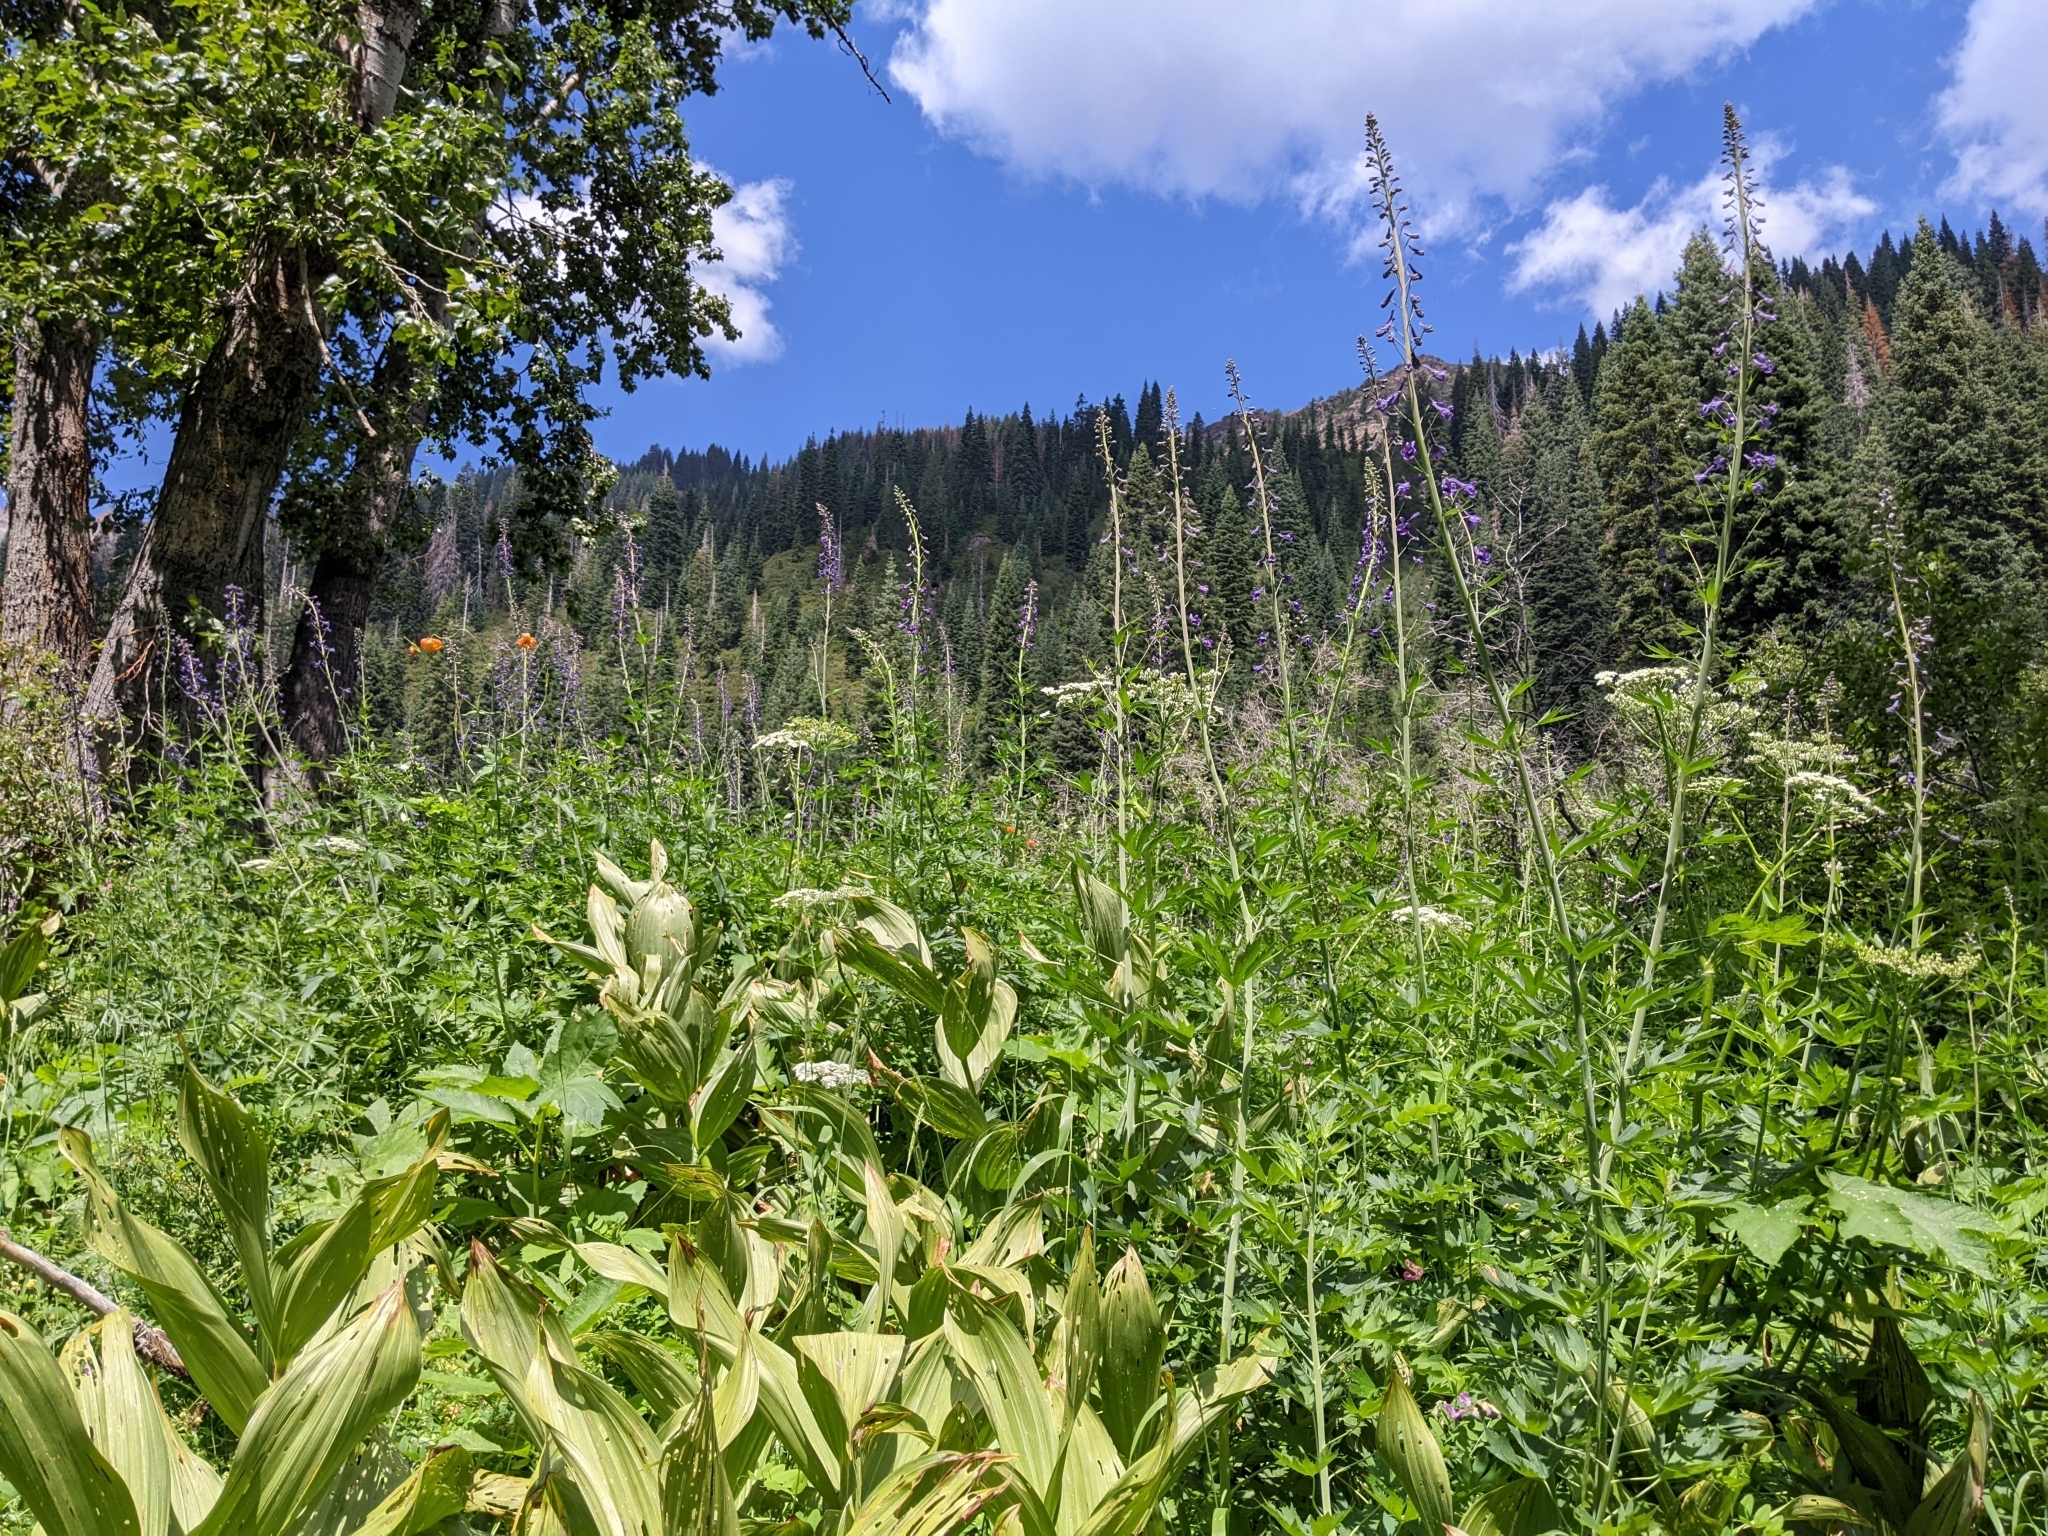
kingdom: Plantae
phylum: Tracheophyta
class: Magnoliopsida
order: Ranunculales
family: Ranunculaceae
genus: Delphinium
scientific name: Delphinium glaucum
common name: Brown's larkspur
